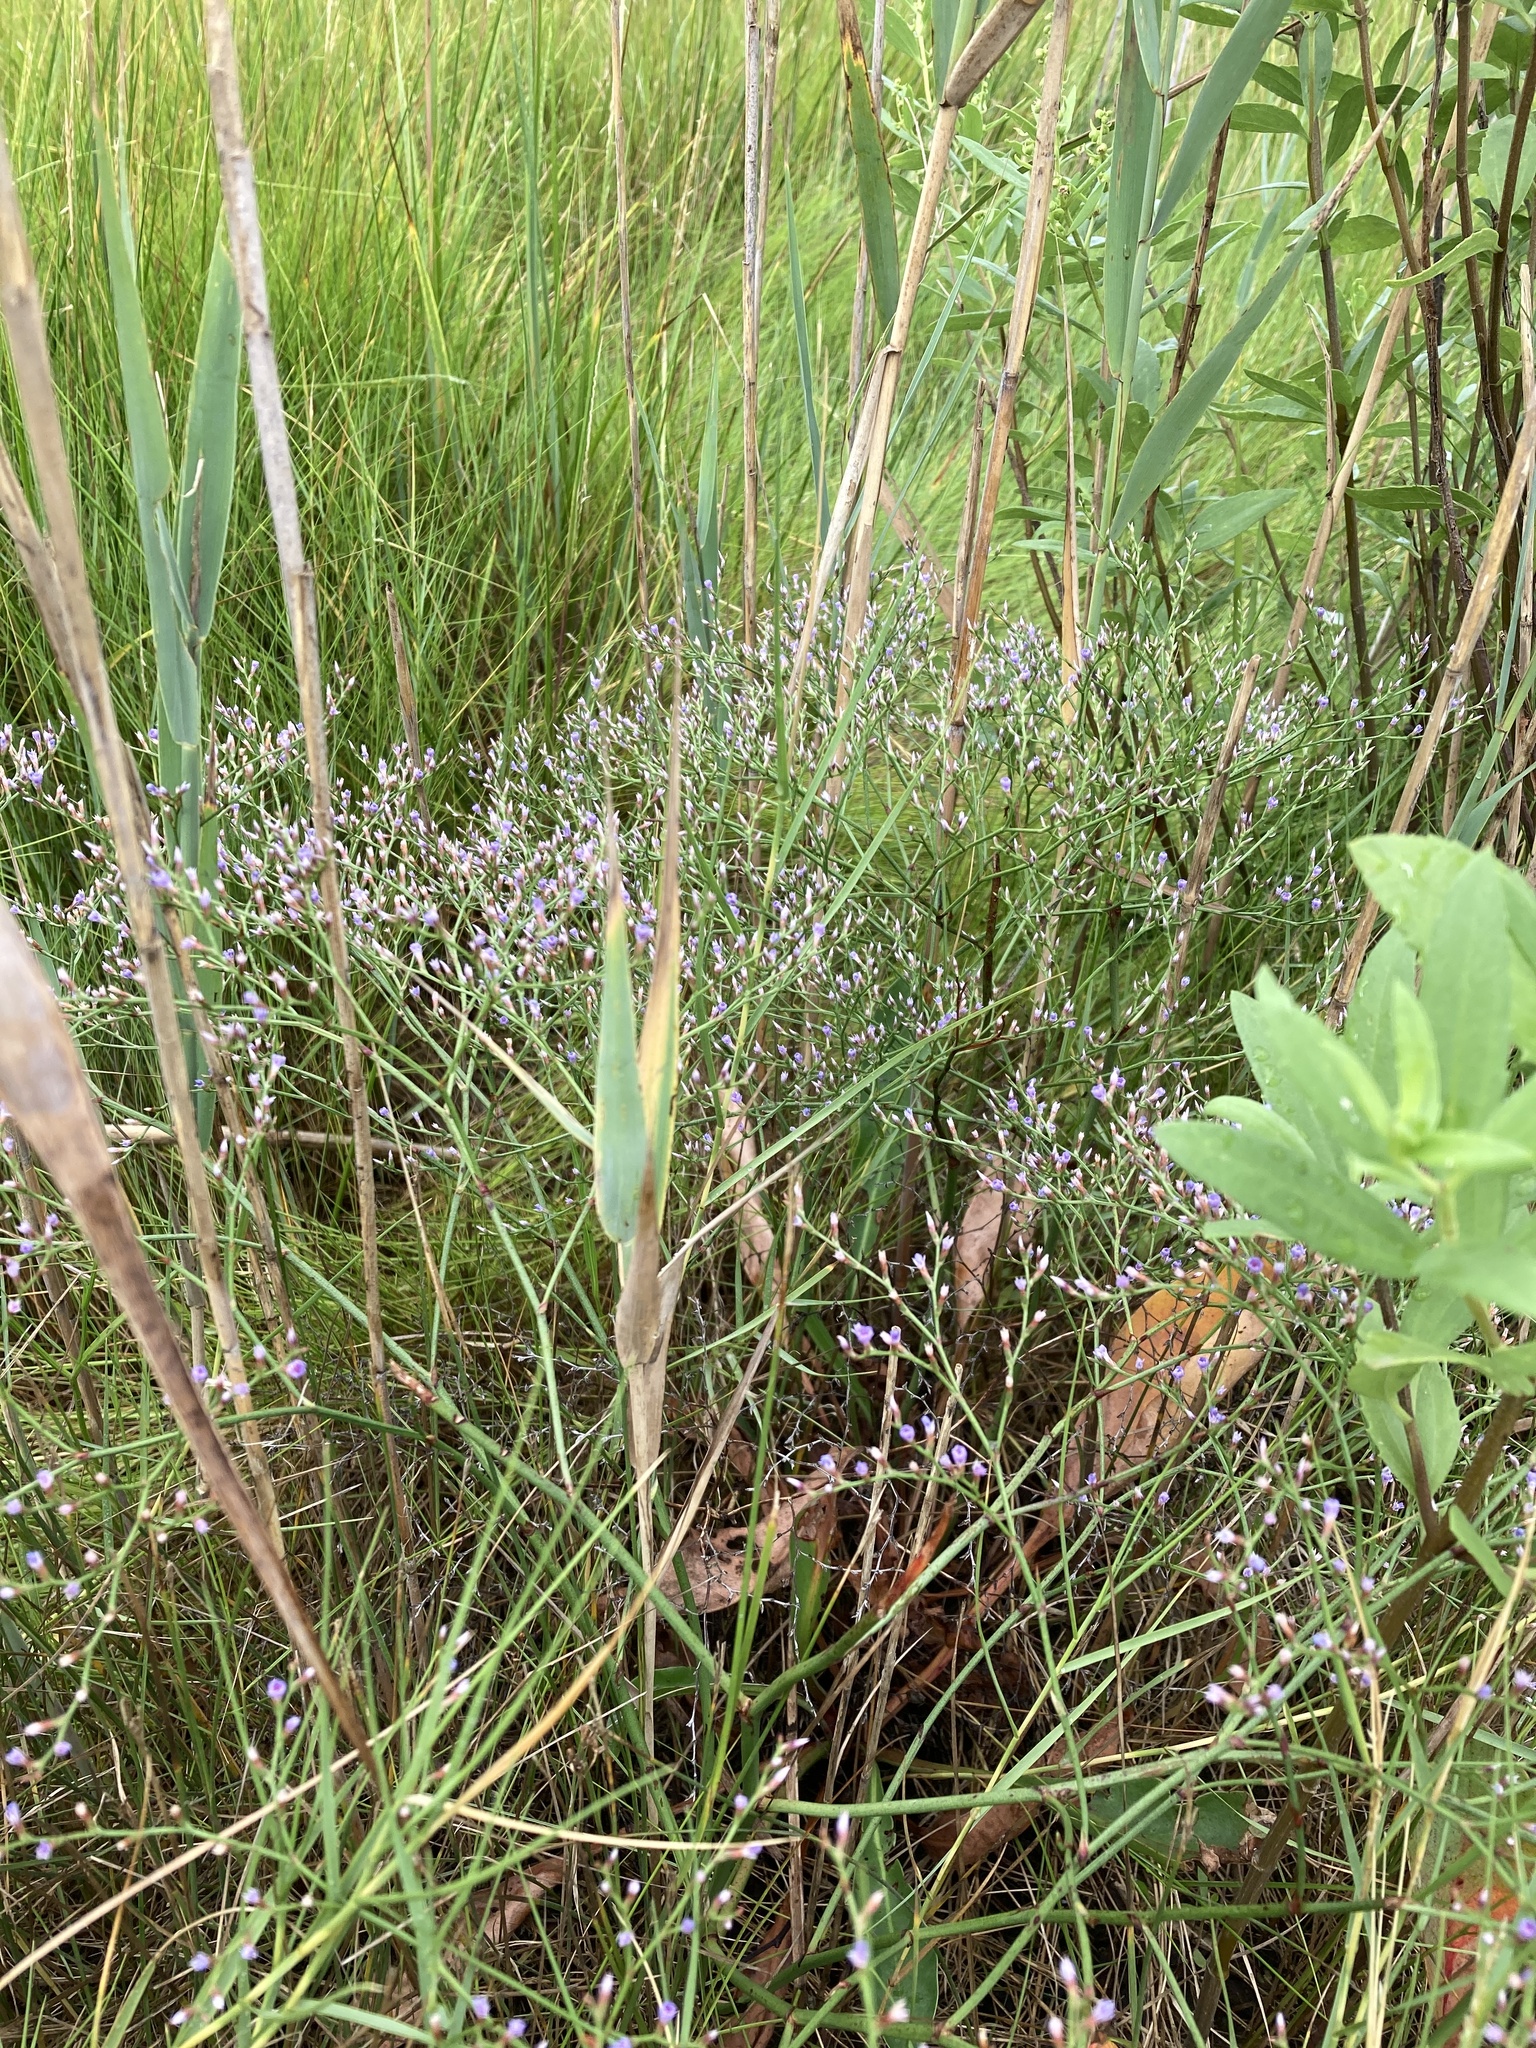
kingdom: Plantae
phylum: Tracheophyta
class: Magnoliopsida
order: Caryophyllales
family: Plumbaginaceae
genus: Limonium
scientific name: Limonium carolinianum
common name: Carolina sea lavender
